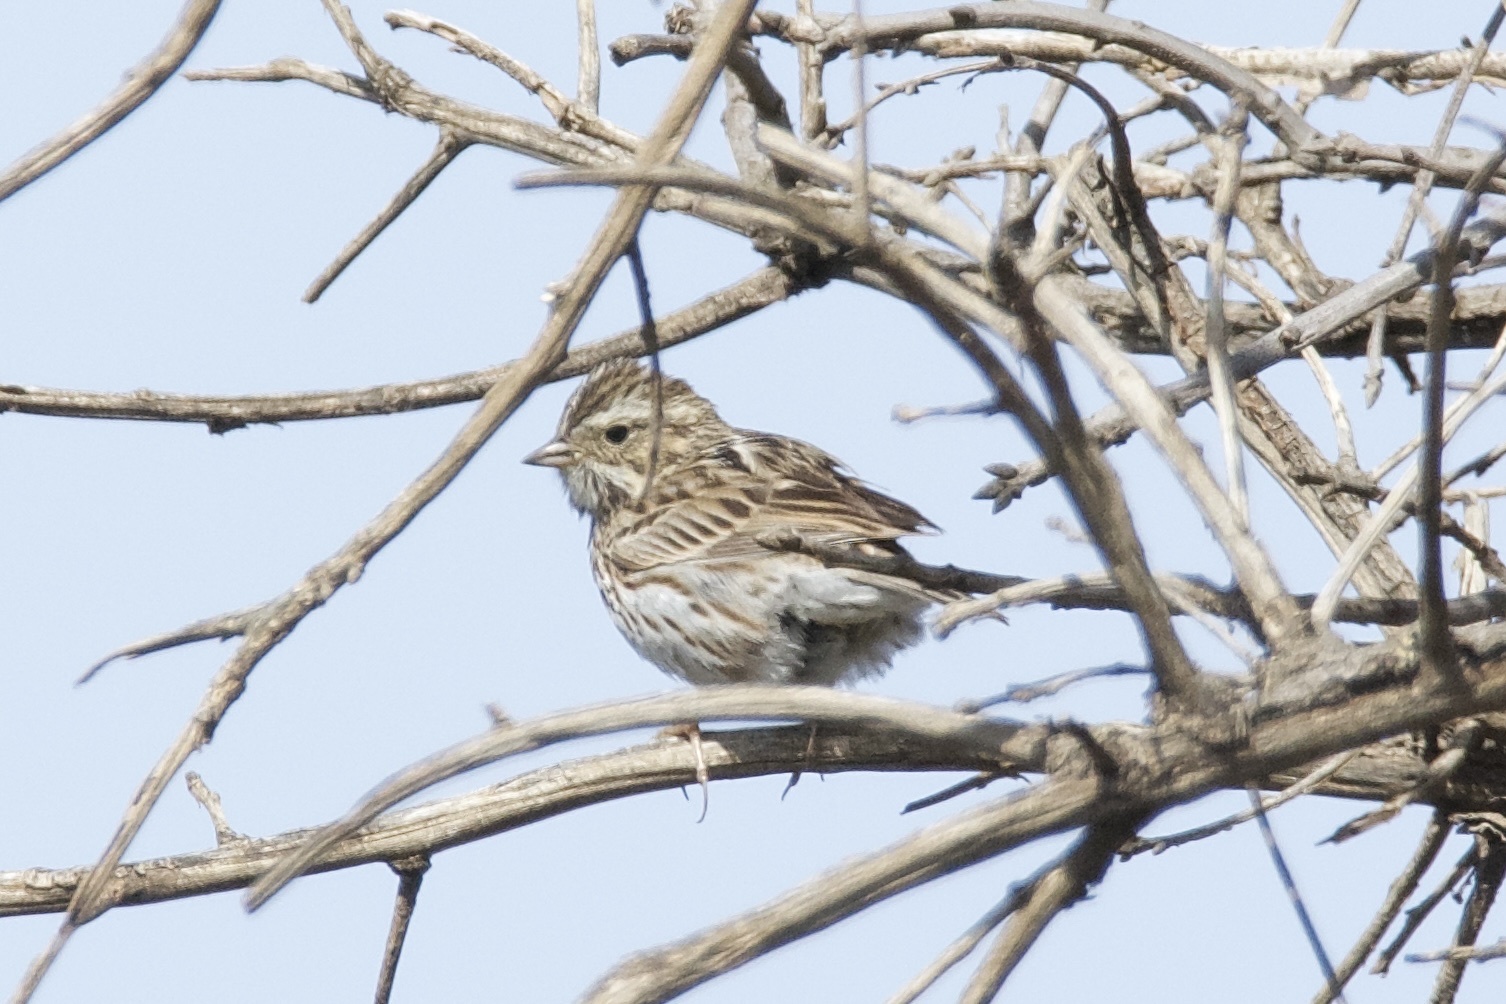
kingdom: Animalia
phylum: Chordata
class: Aves
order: Passeriformes
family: Passerellidae
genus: Passerculus
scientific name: Passerculus sandwichensis
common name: Savannah sparrow
